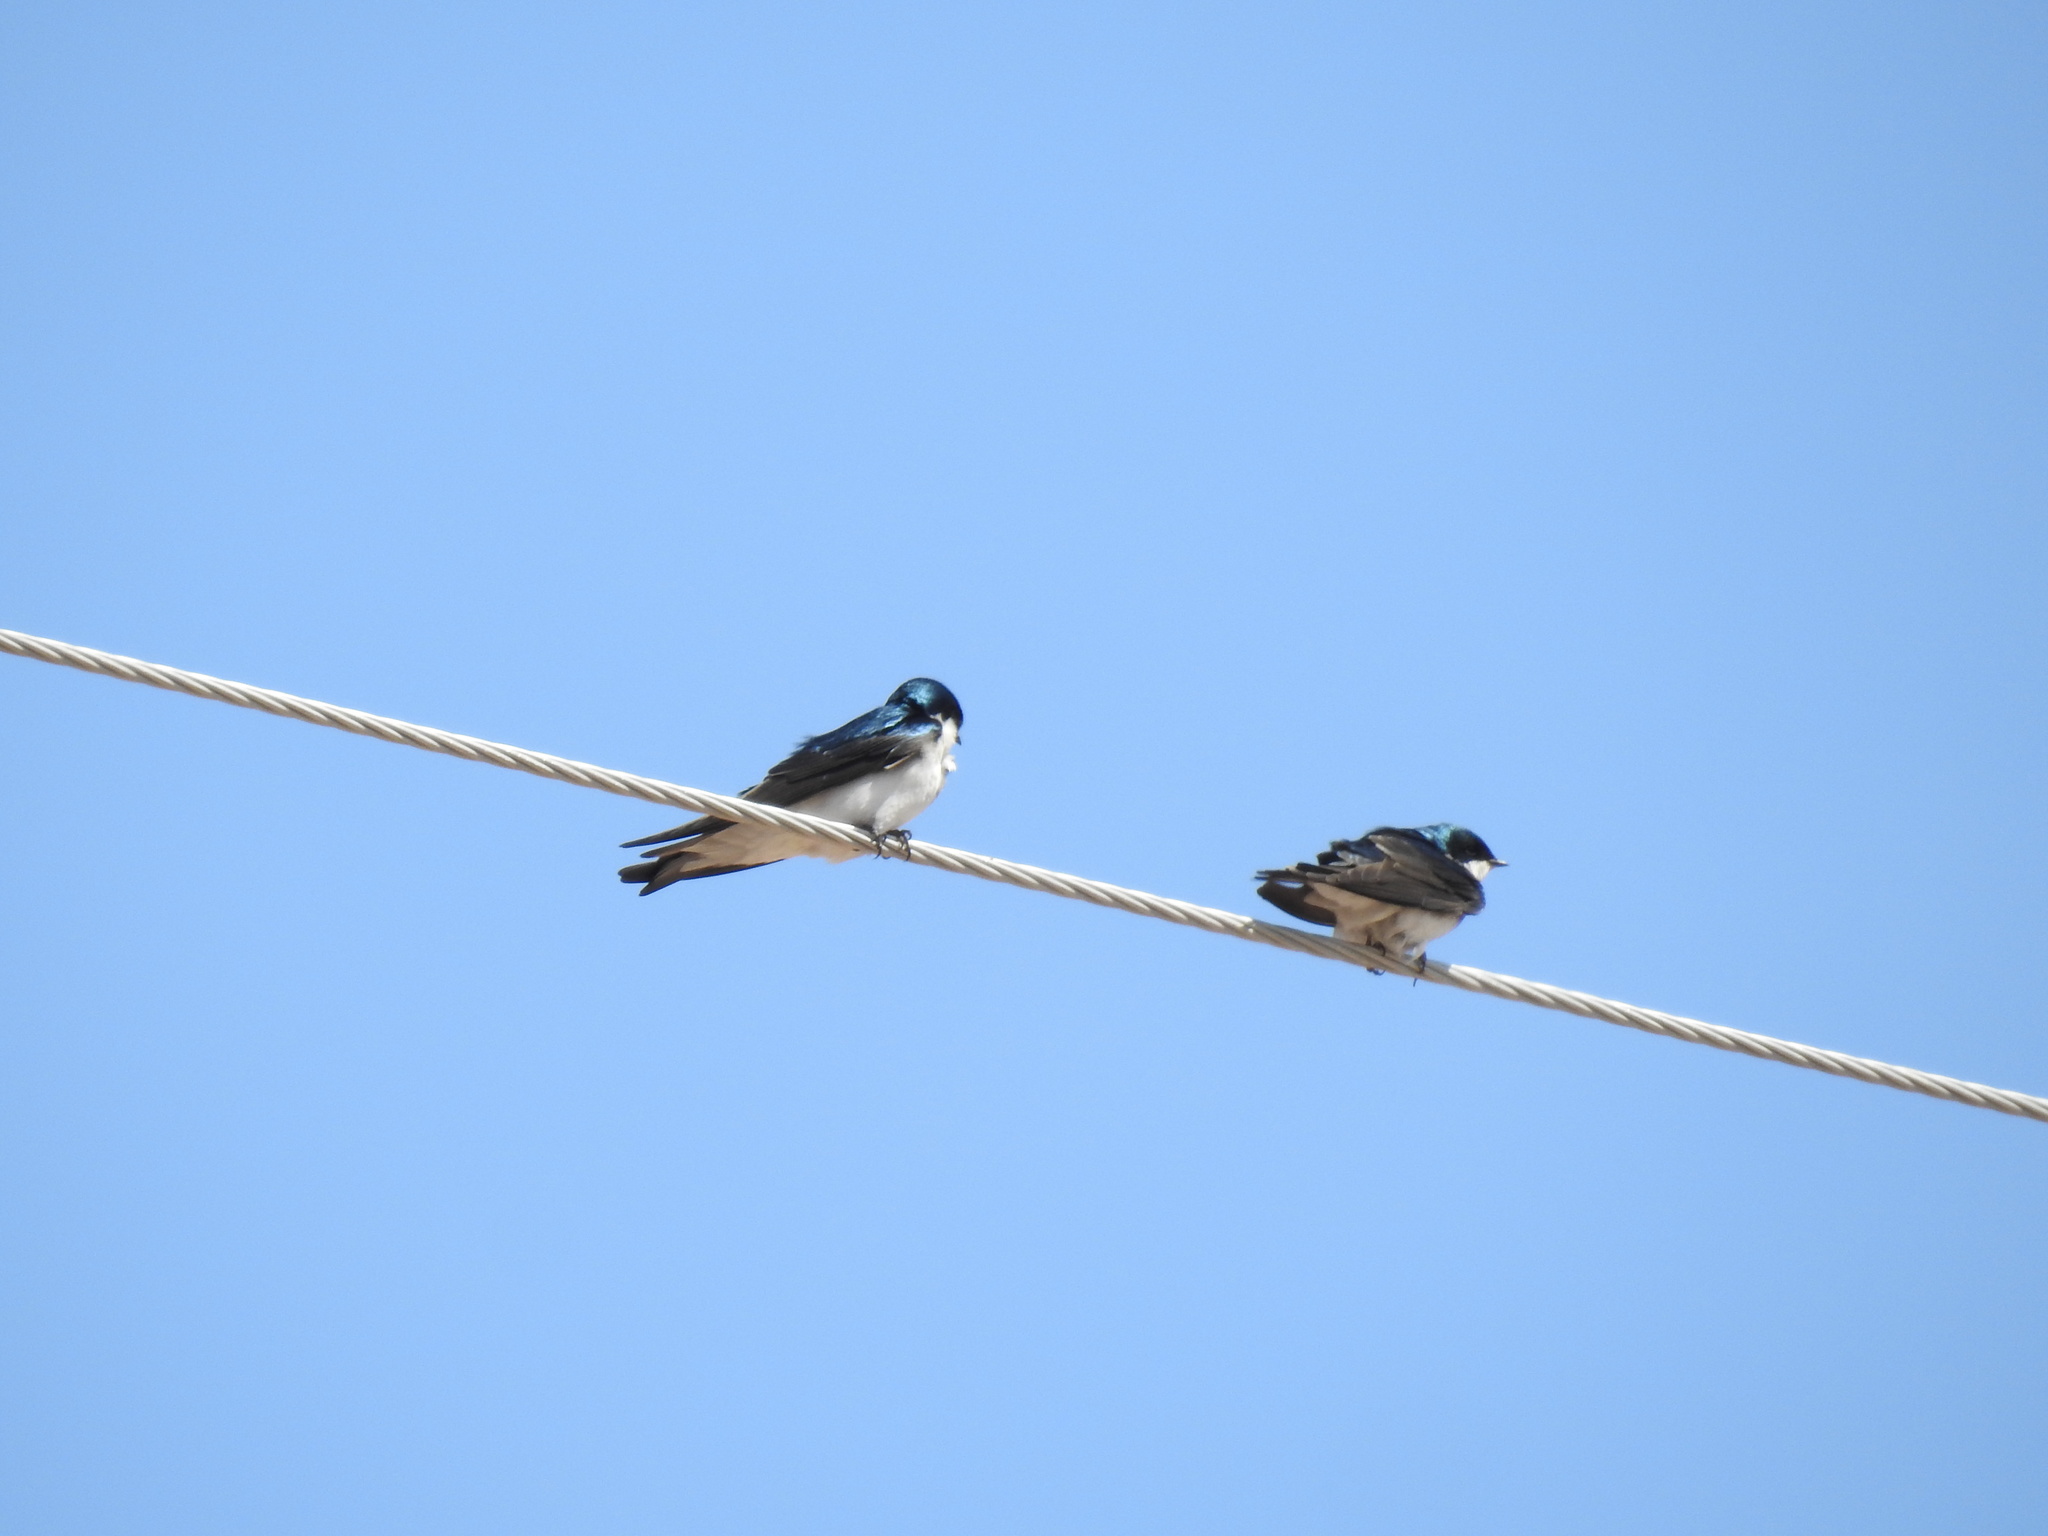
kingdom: Animalia
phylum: Chordata
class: Aves
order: Passeriformes
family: Hirundinidae
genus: Tachycineta
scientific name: Tachycineta bicolor
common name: Tree swallow
